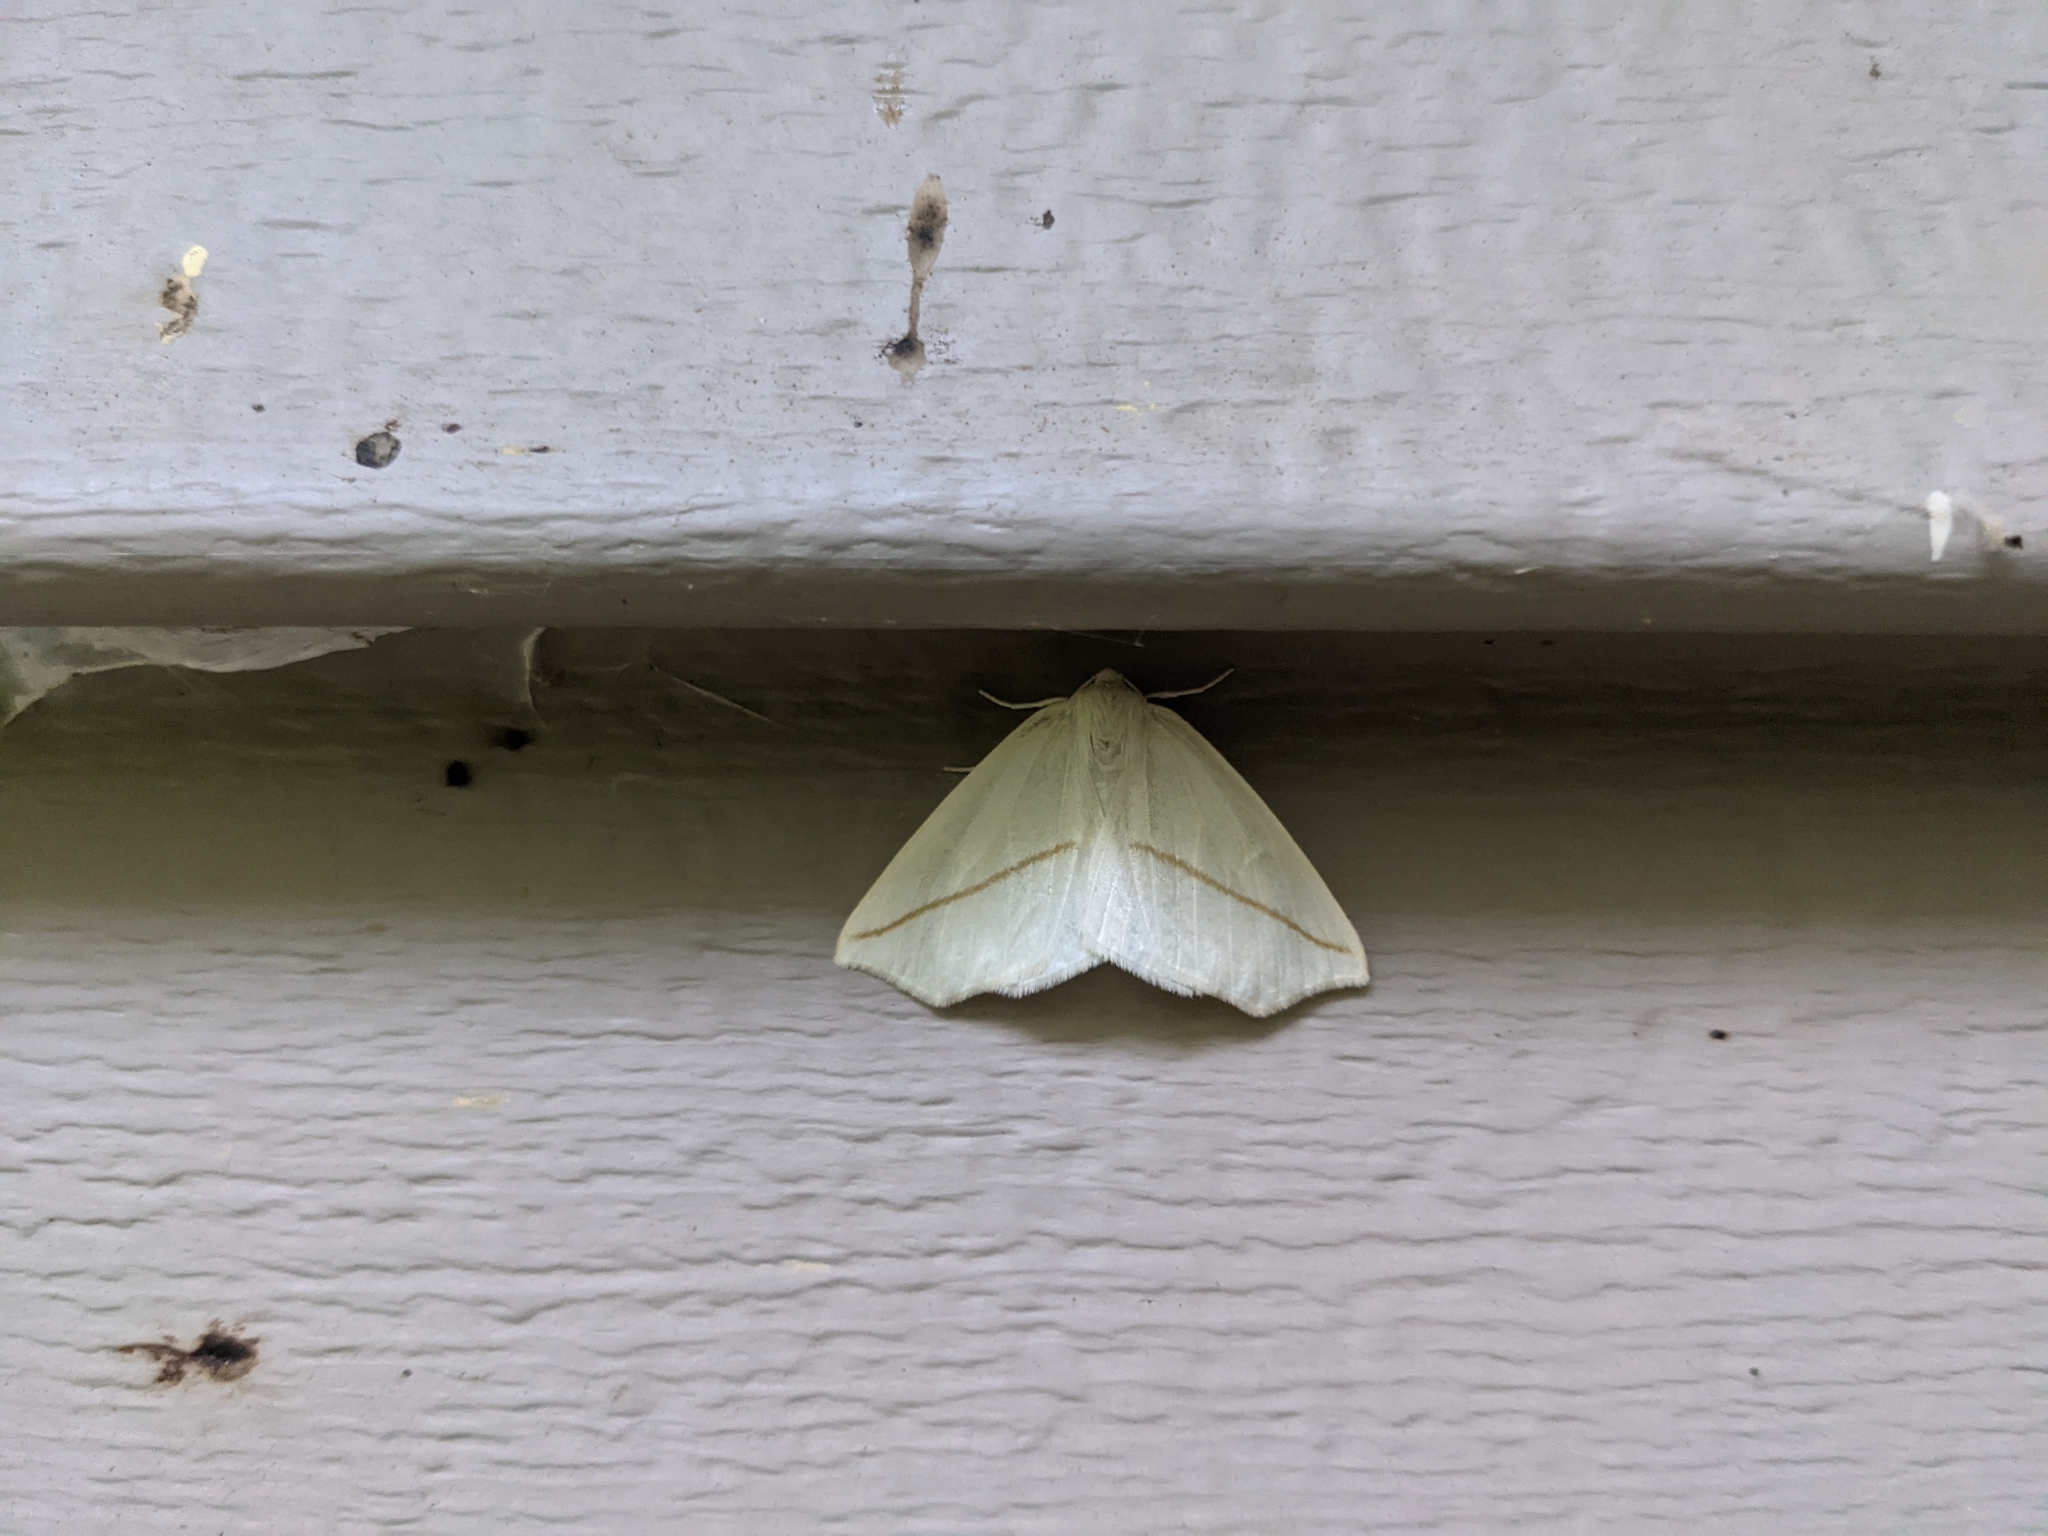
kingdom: Animalia
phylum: Arthropoda
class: Insecta
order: Lepidoptera
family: Geometridae
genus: Tetracis
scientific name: Tetracis cachexiata
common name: White slant-line
